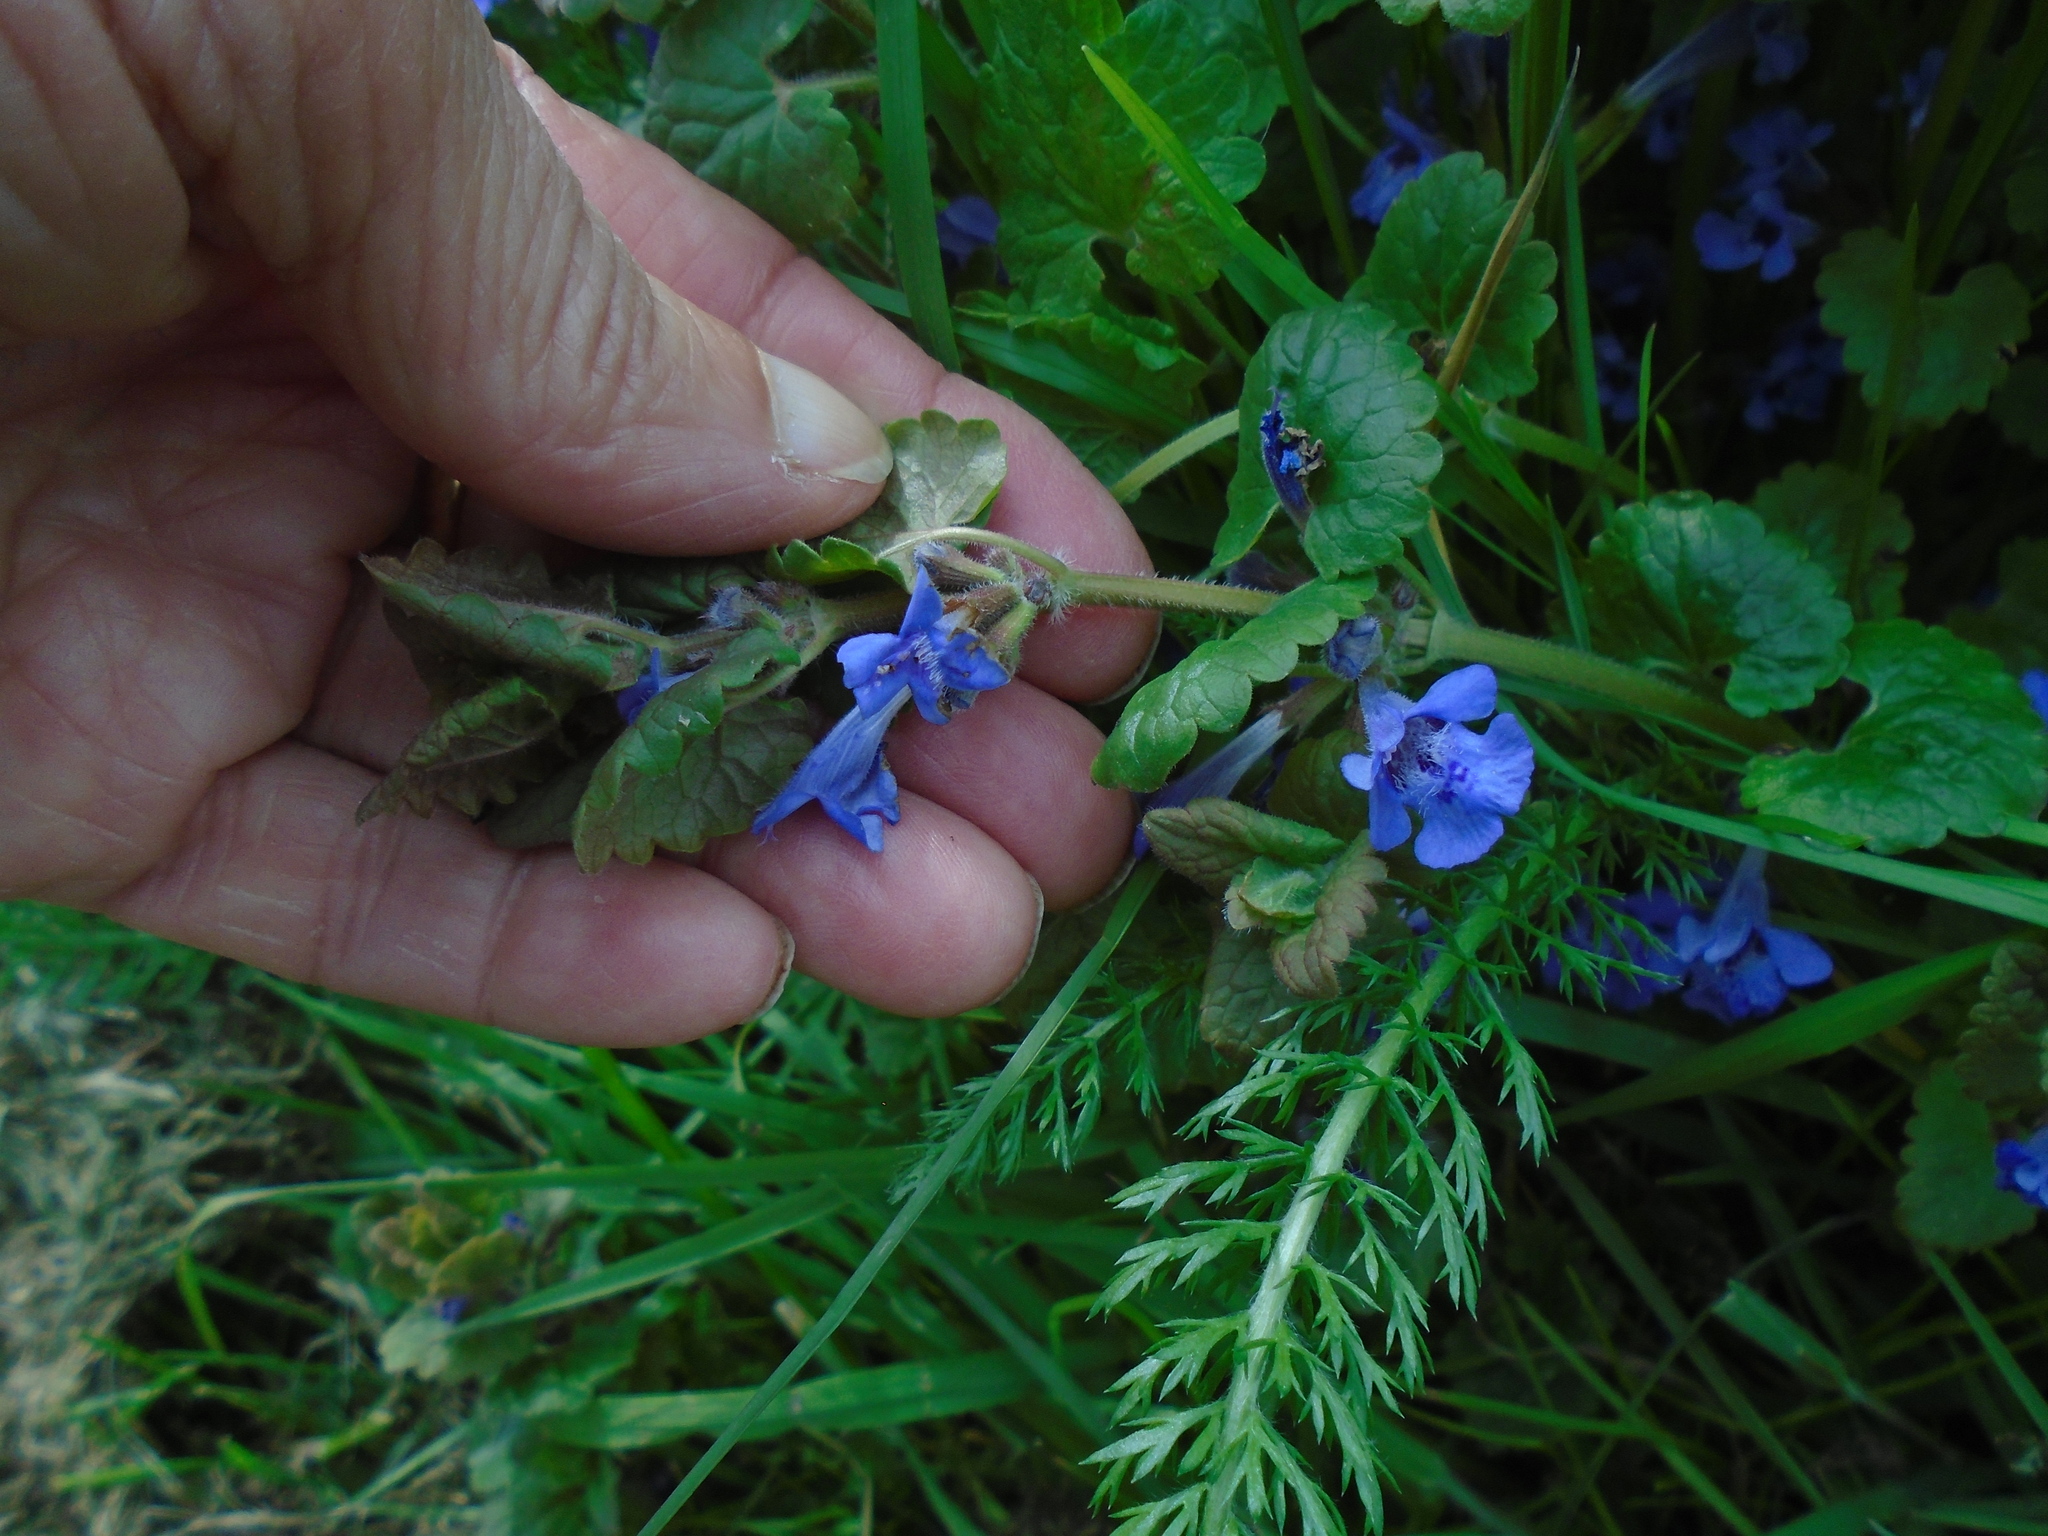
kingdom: Plantae
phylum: Tracheophyta
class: Magnoliopsida
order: Lamiales
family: Lamiaceae
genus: Glechoma
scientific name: Glechoma hederacea
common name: Ground ivy
